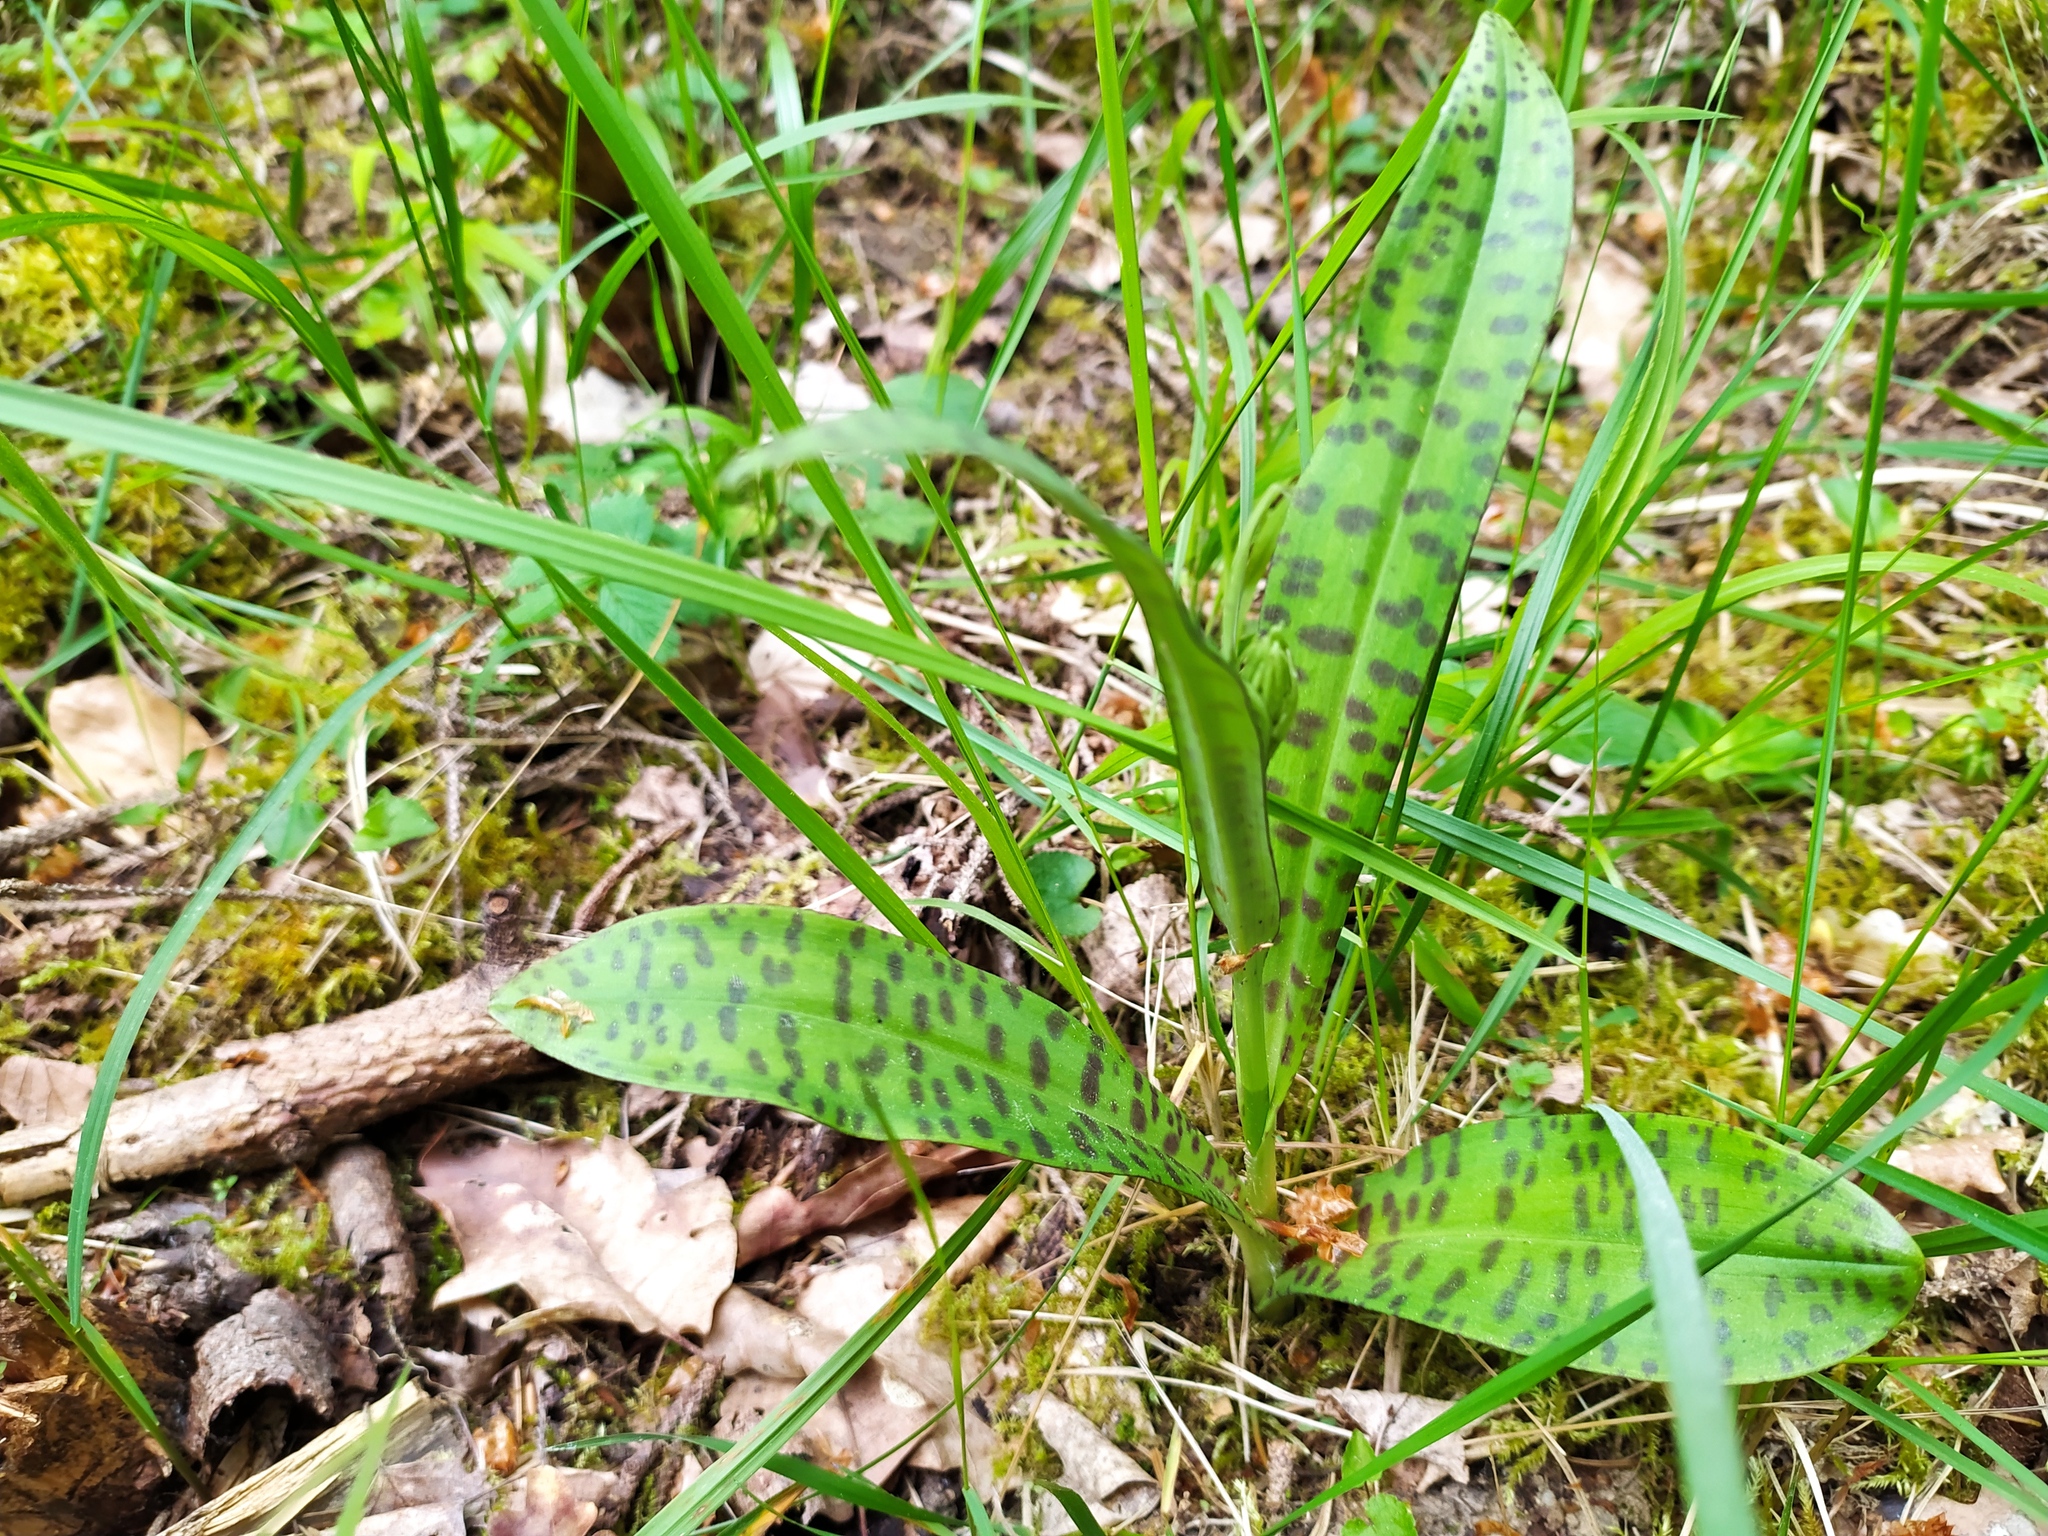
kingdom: Plantae
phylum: Tracheophyta
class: Liliopsida
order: Asparagales
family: Orchidaceae
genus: Dactylorhiza
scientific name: Dactylorhiza maculata
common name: Heath spotted-orchid
